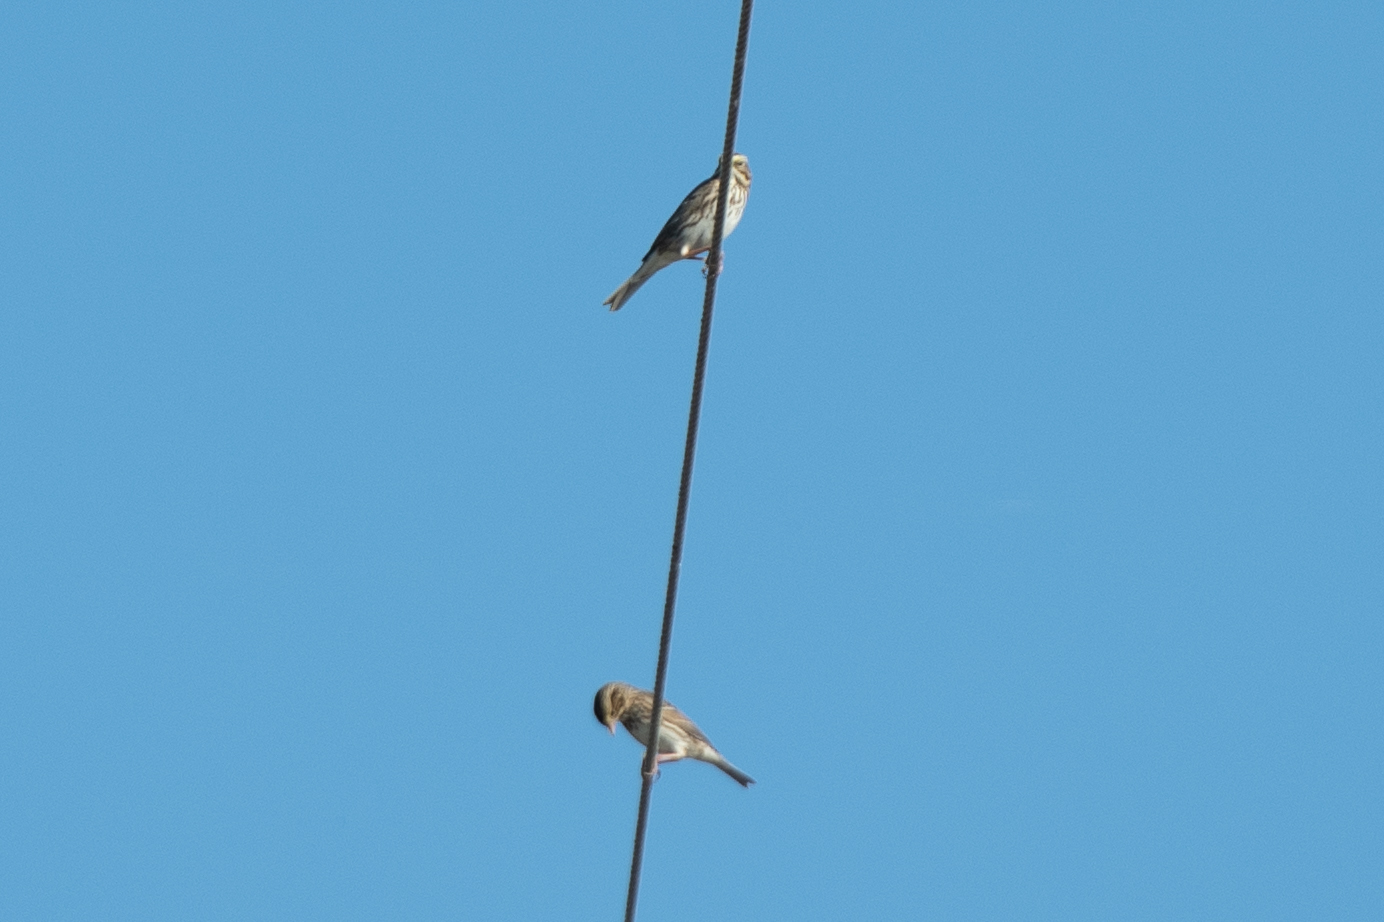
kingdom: Animalia
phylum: Chordata
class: Aves
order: Passeriformes
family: Passerellidae
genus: Passerculus
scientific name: Passerculus sandwichensis
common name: Savannah sparrow
